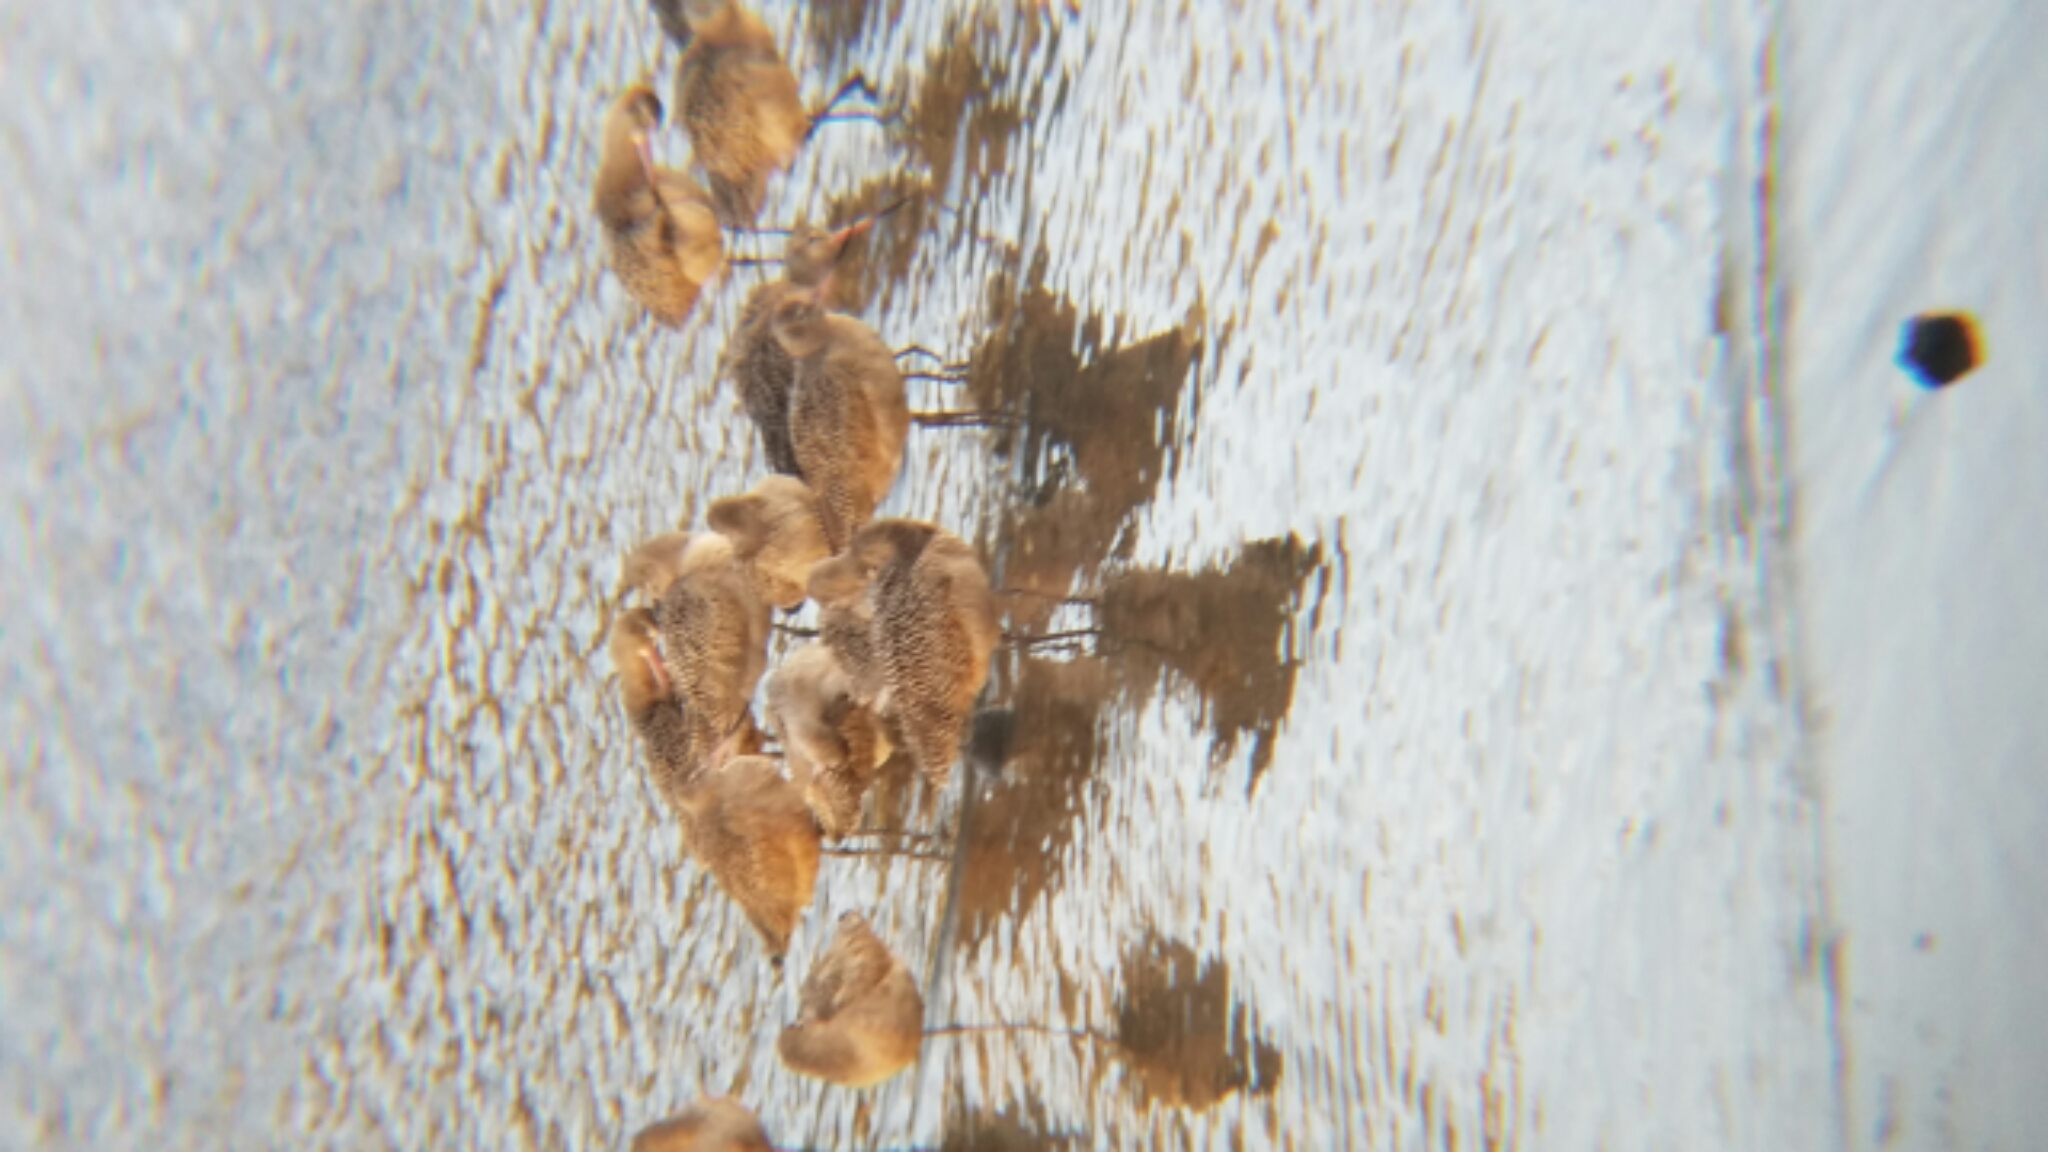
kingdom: Animalia
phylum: Chordata
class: Aves
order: Charadriiformes
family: Scolopacidae
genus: Limosa
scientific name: Limosa fedoa
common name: Marbled godwit
